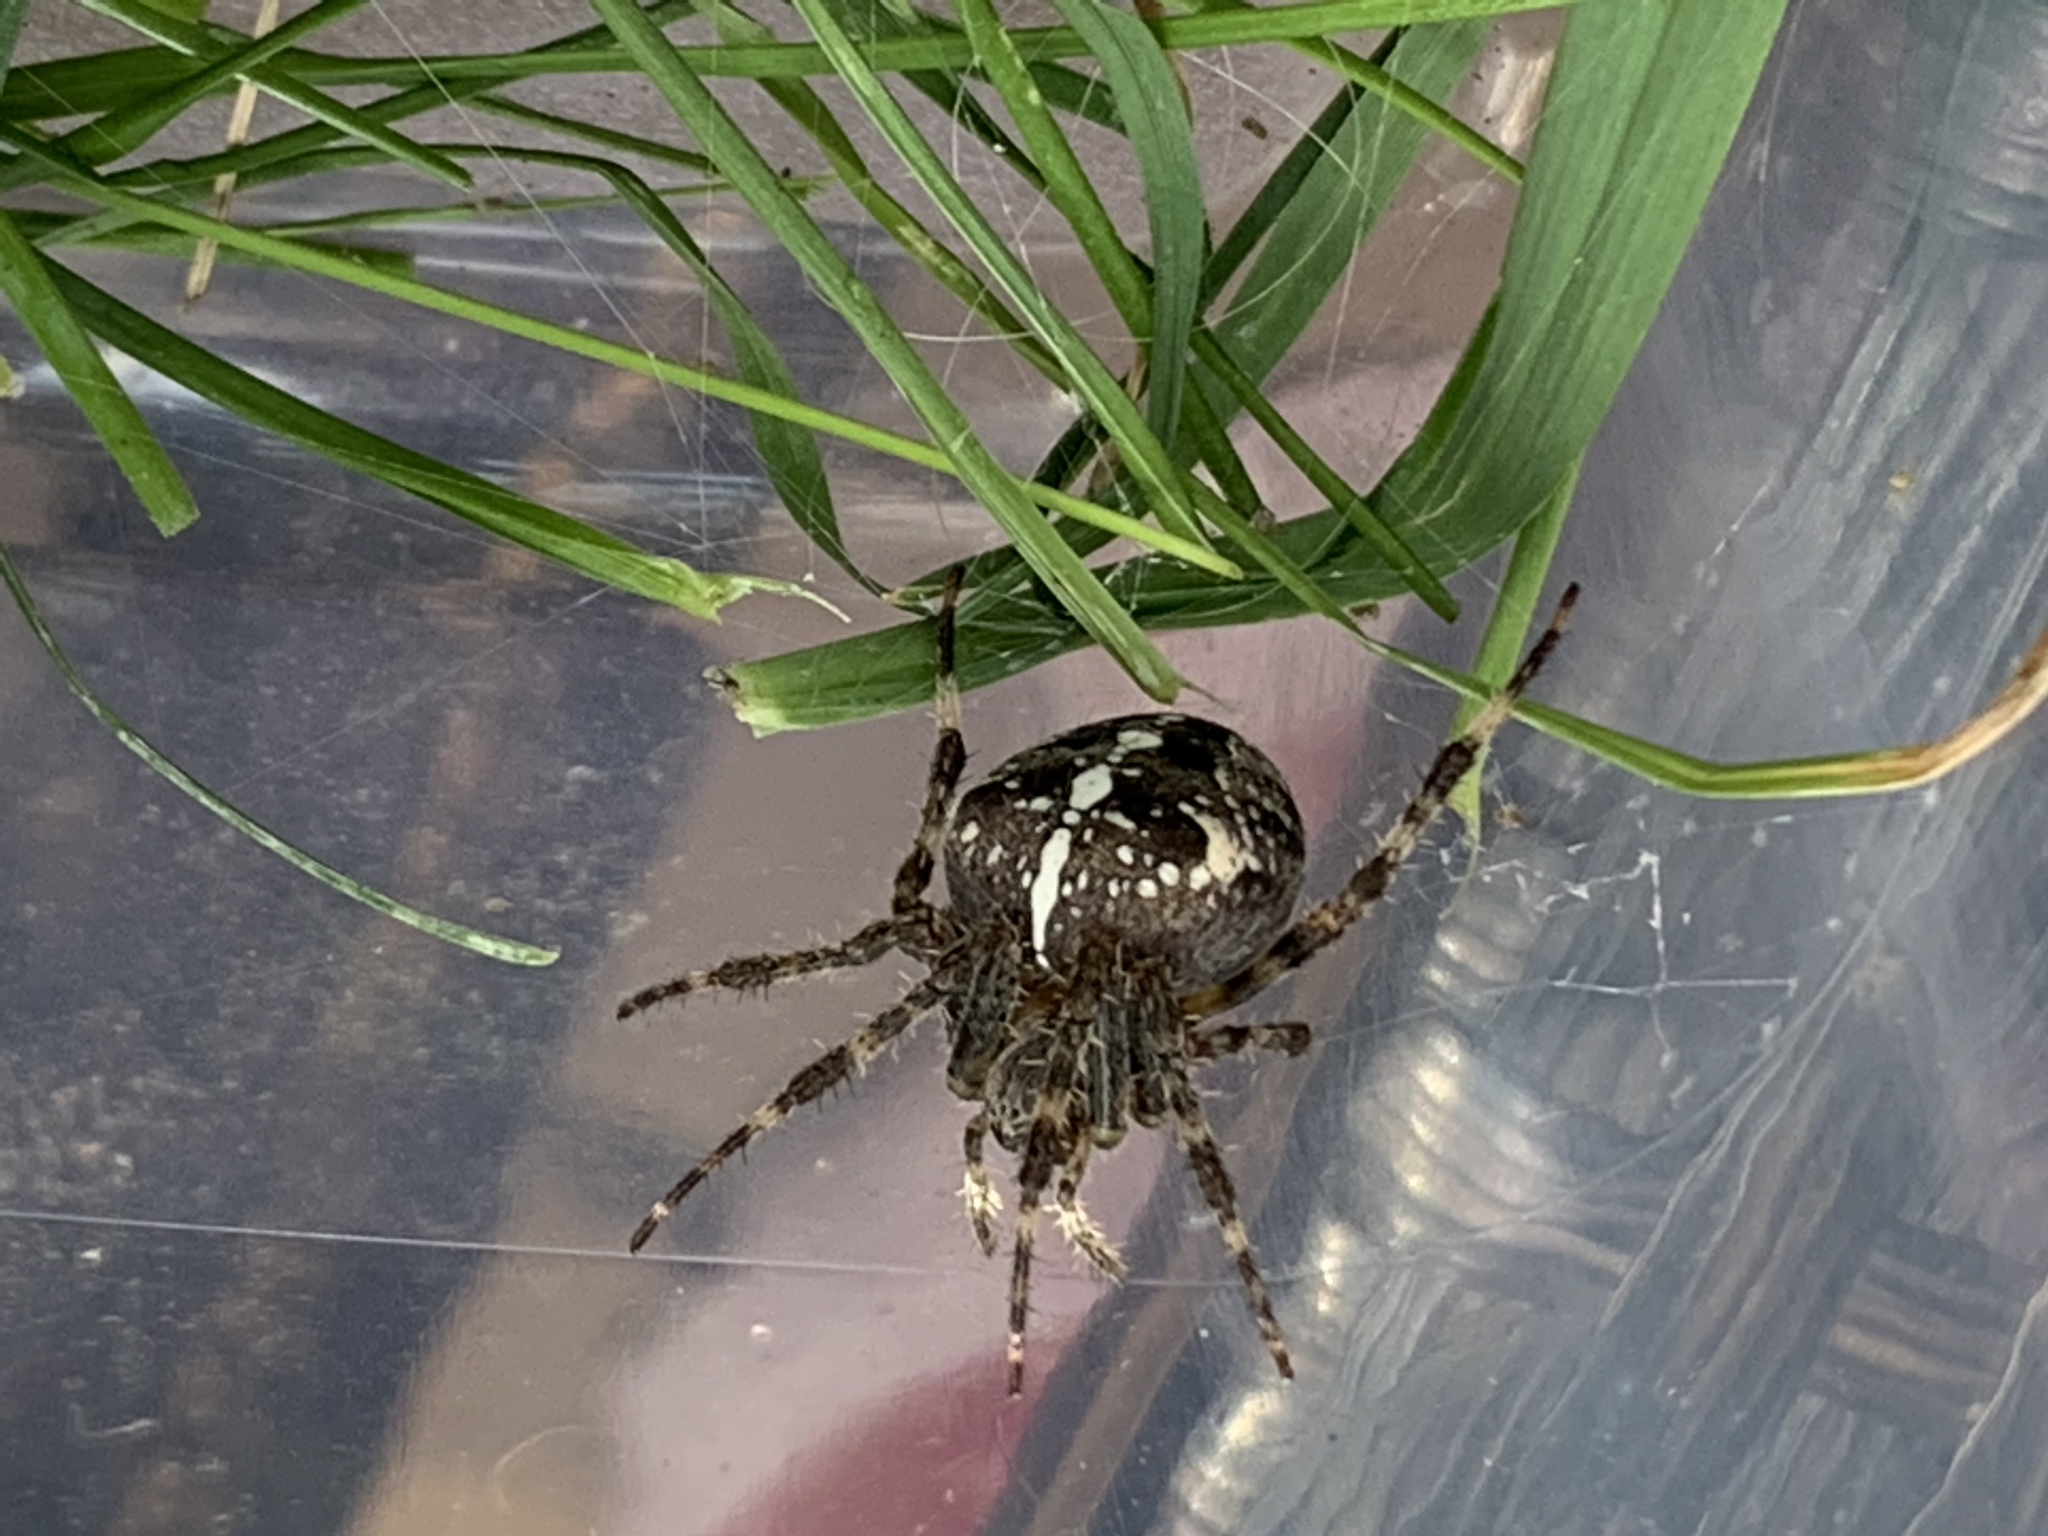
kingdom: Animalia
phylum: Arthropoda
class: Arachnida
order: Araneae
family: Araneidae
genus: Araneus
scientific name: Araneus diadematus
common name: Cross orbweaver
